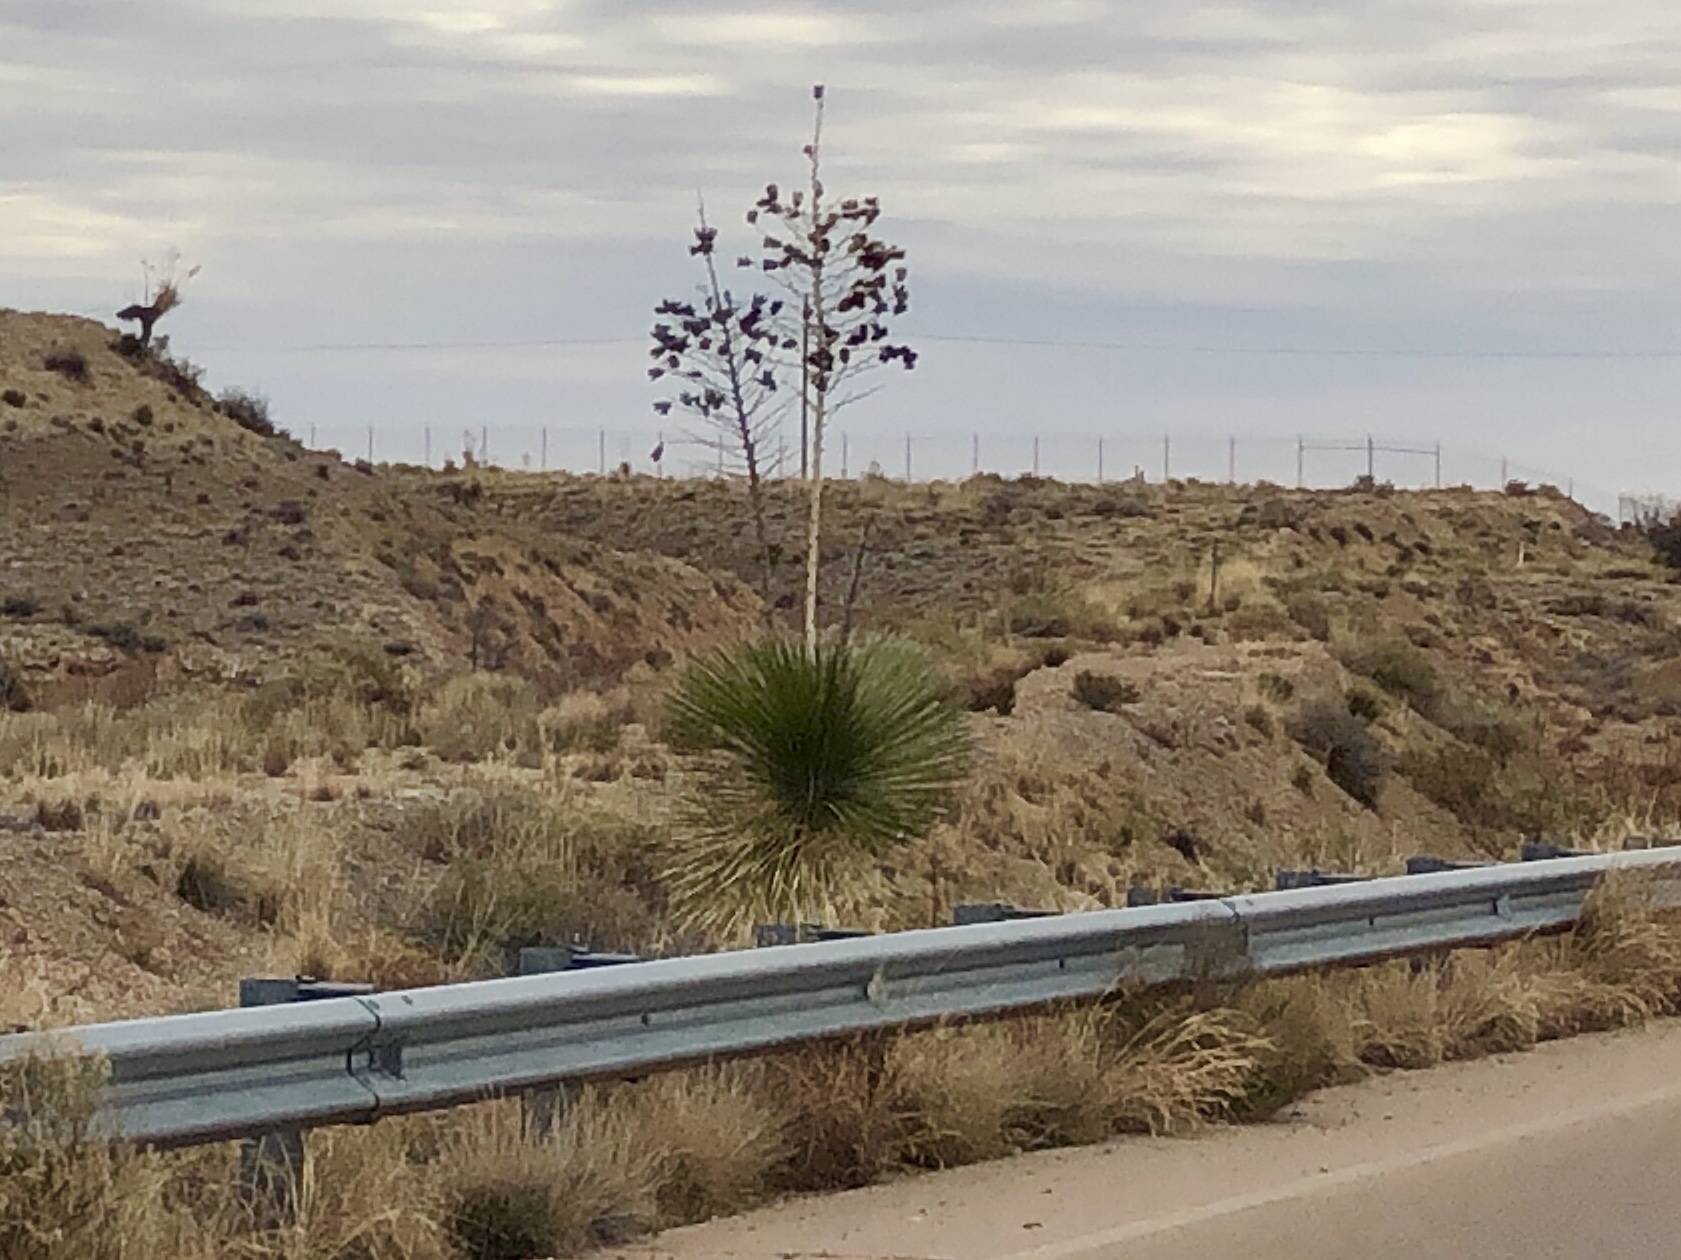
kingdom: Plantae
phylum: Tracheophyta
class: Liliopsida
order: Asparagales
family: Asparagaceae
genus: Yucca
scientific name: Yucca elata
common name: Palmella
